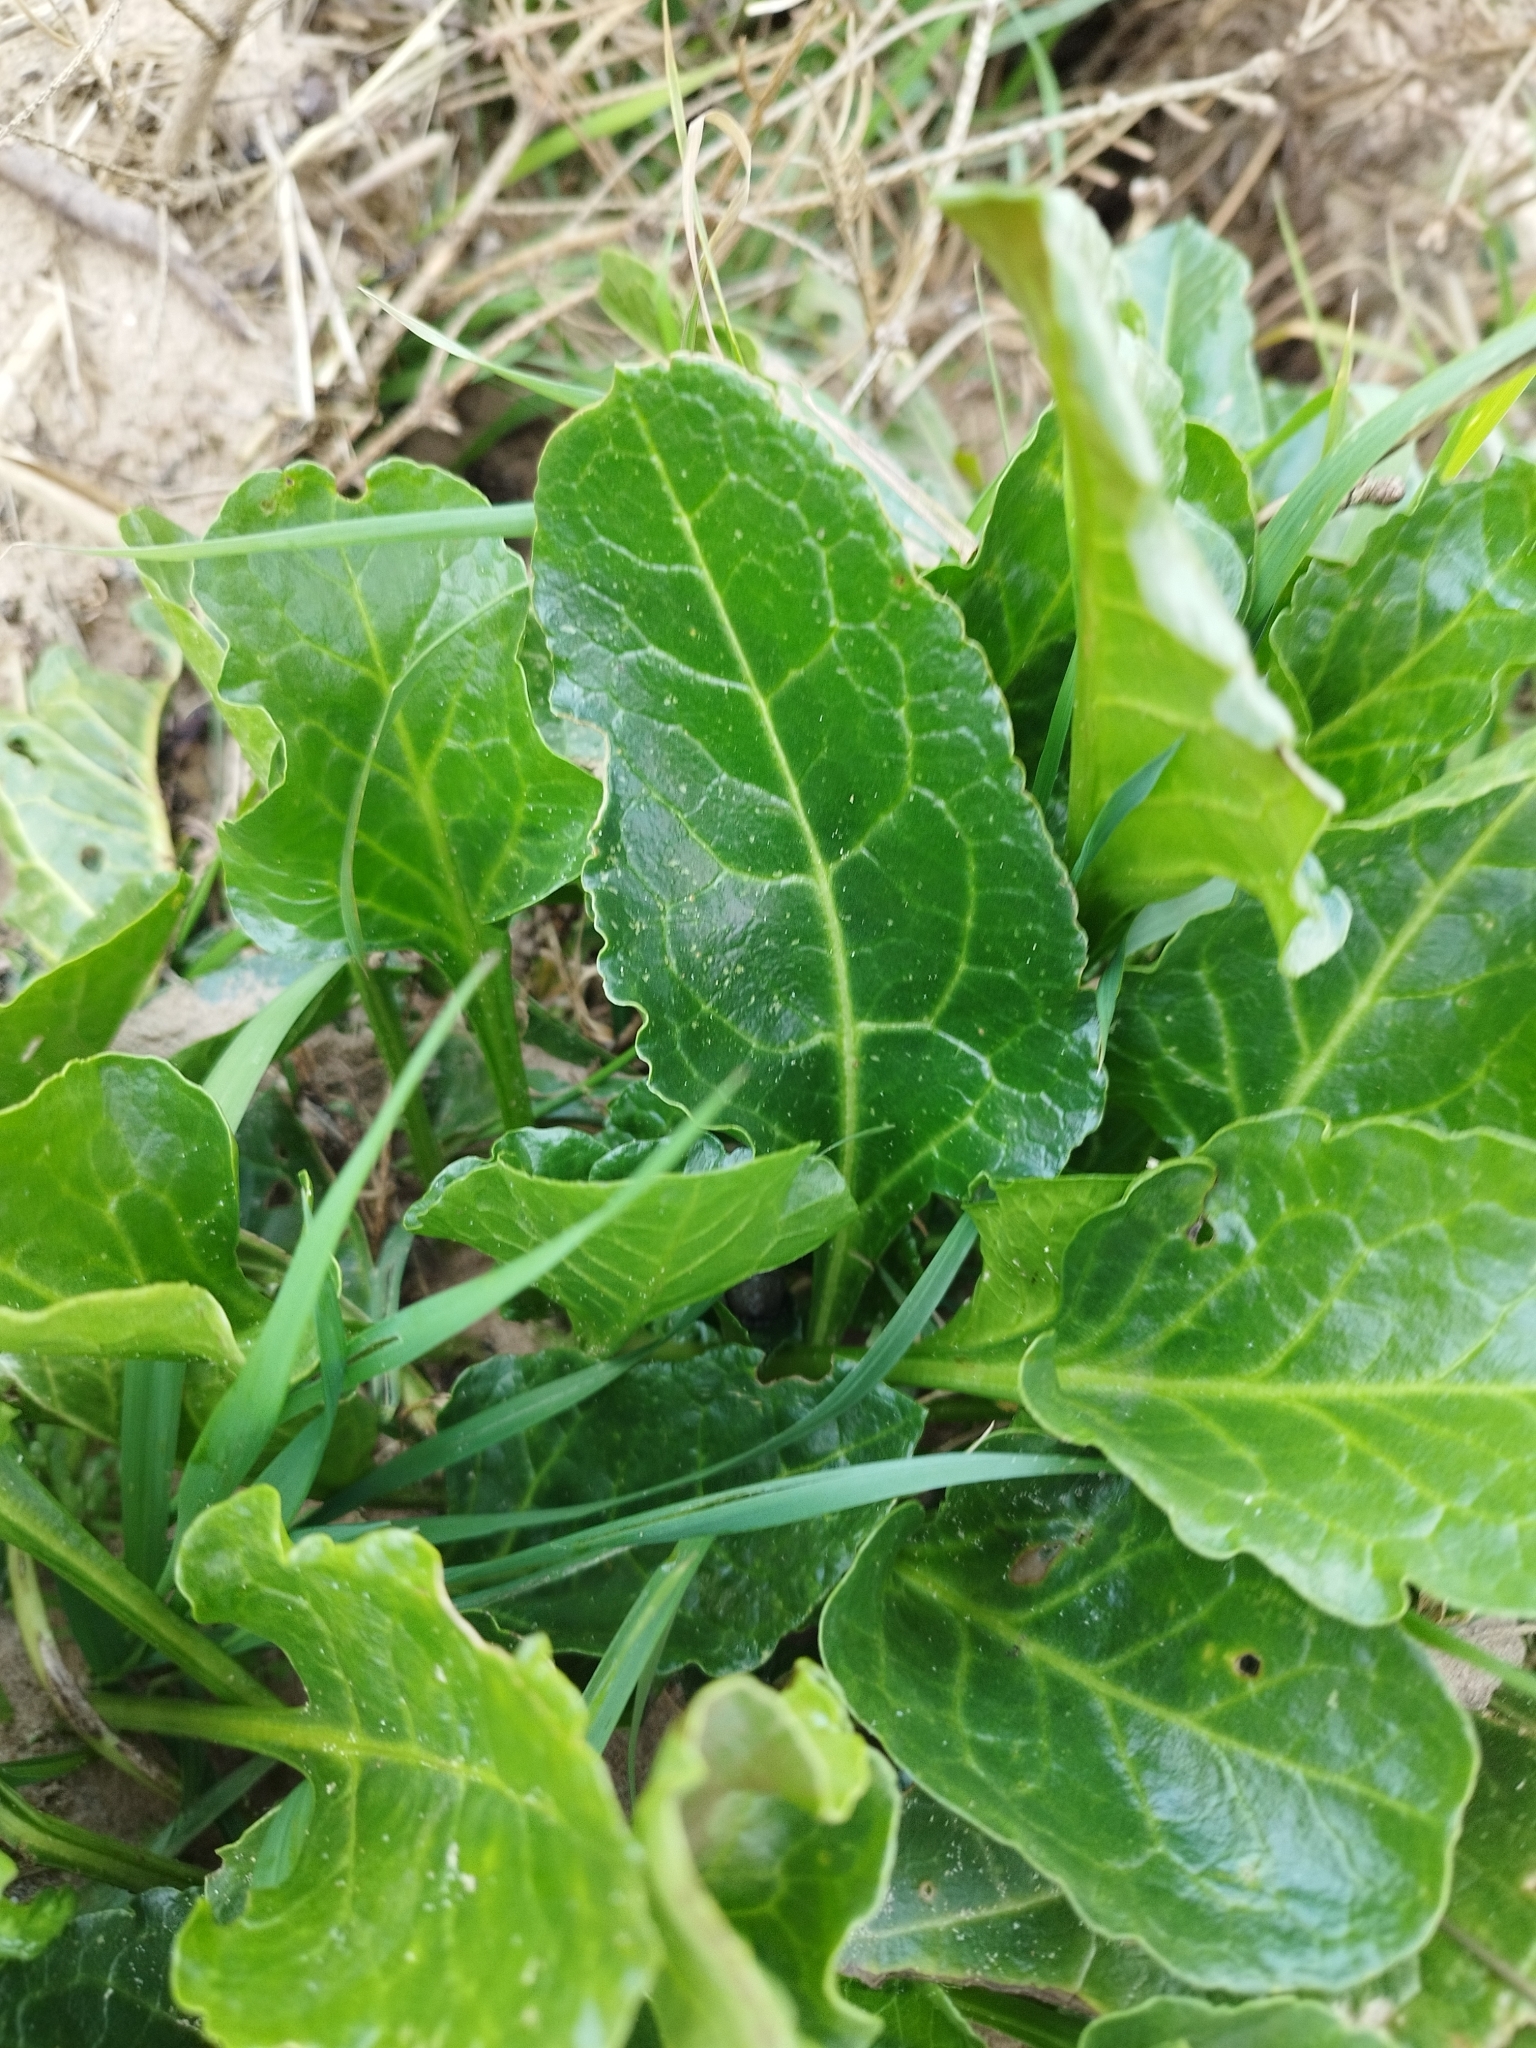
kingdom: Plantae
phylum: Tracheophyta
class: Magnoliopsida
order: Caryophyllales
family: Amaranthaceae
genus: Beta
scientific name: Beta vulgaris
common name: Beet
